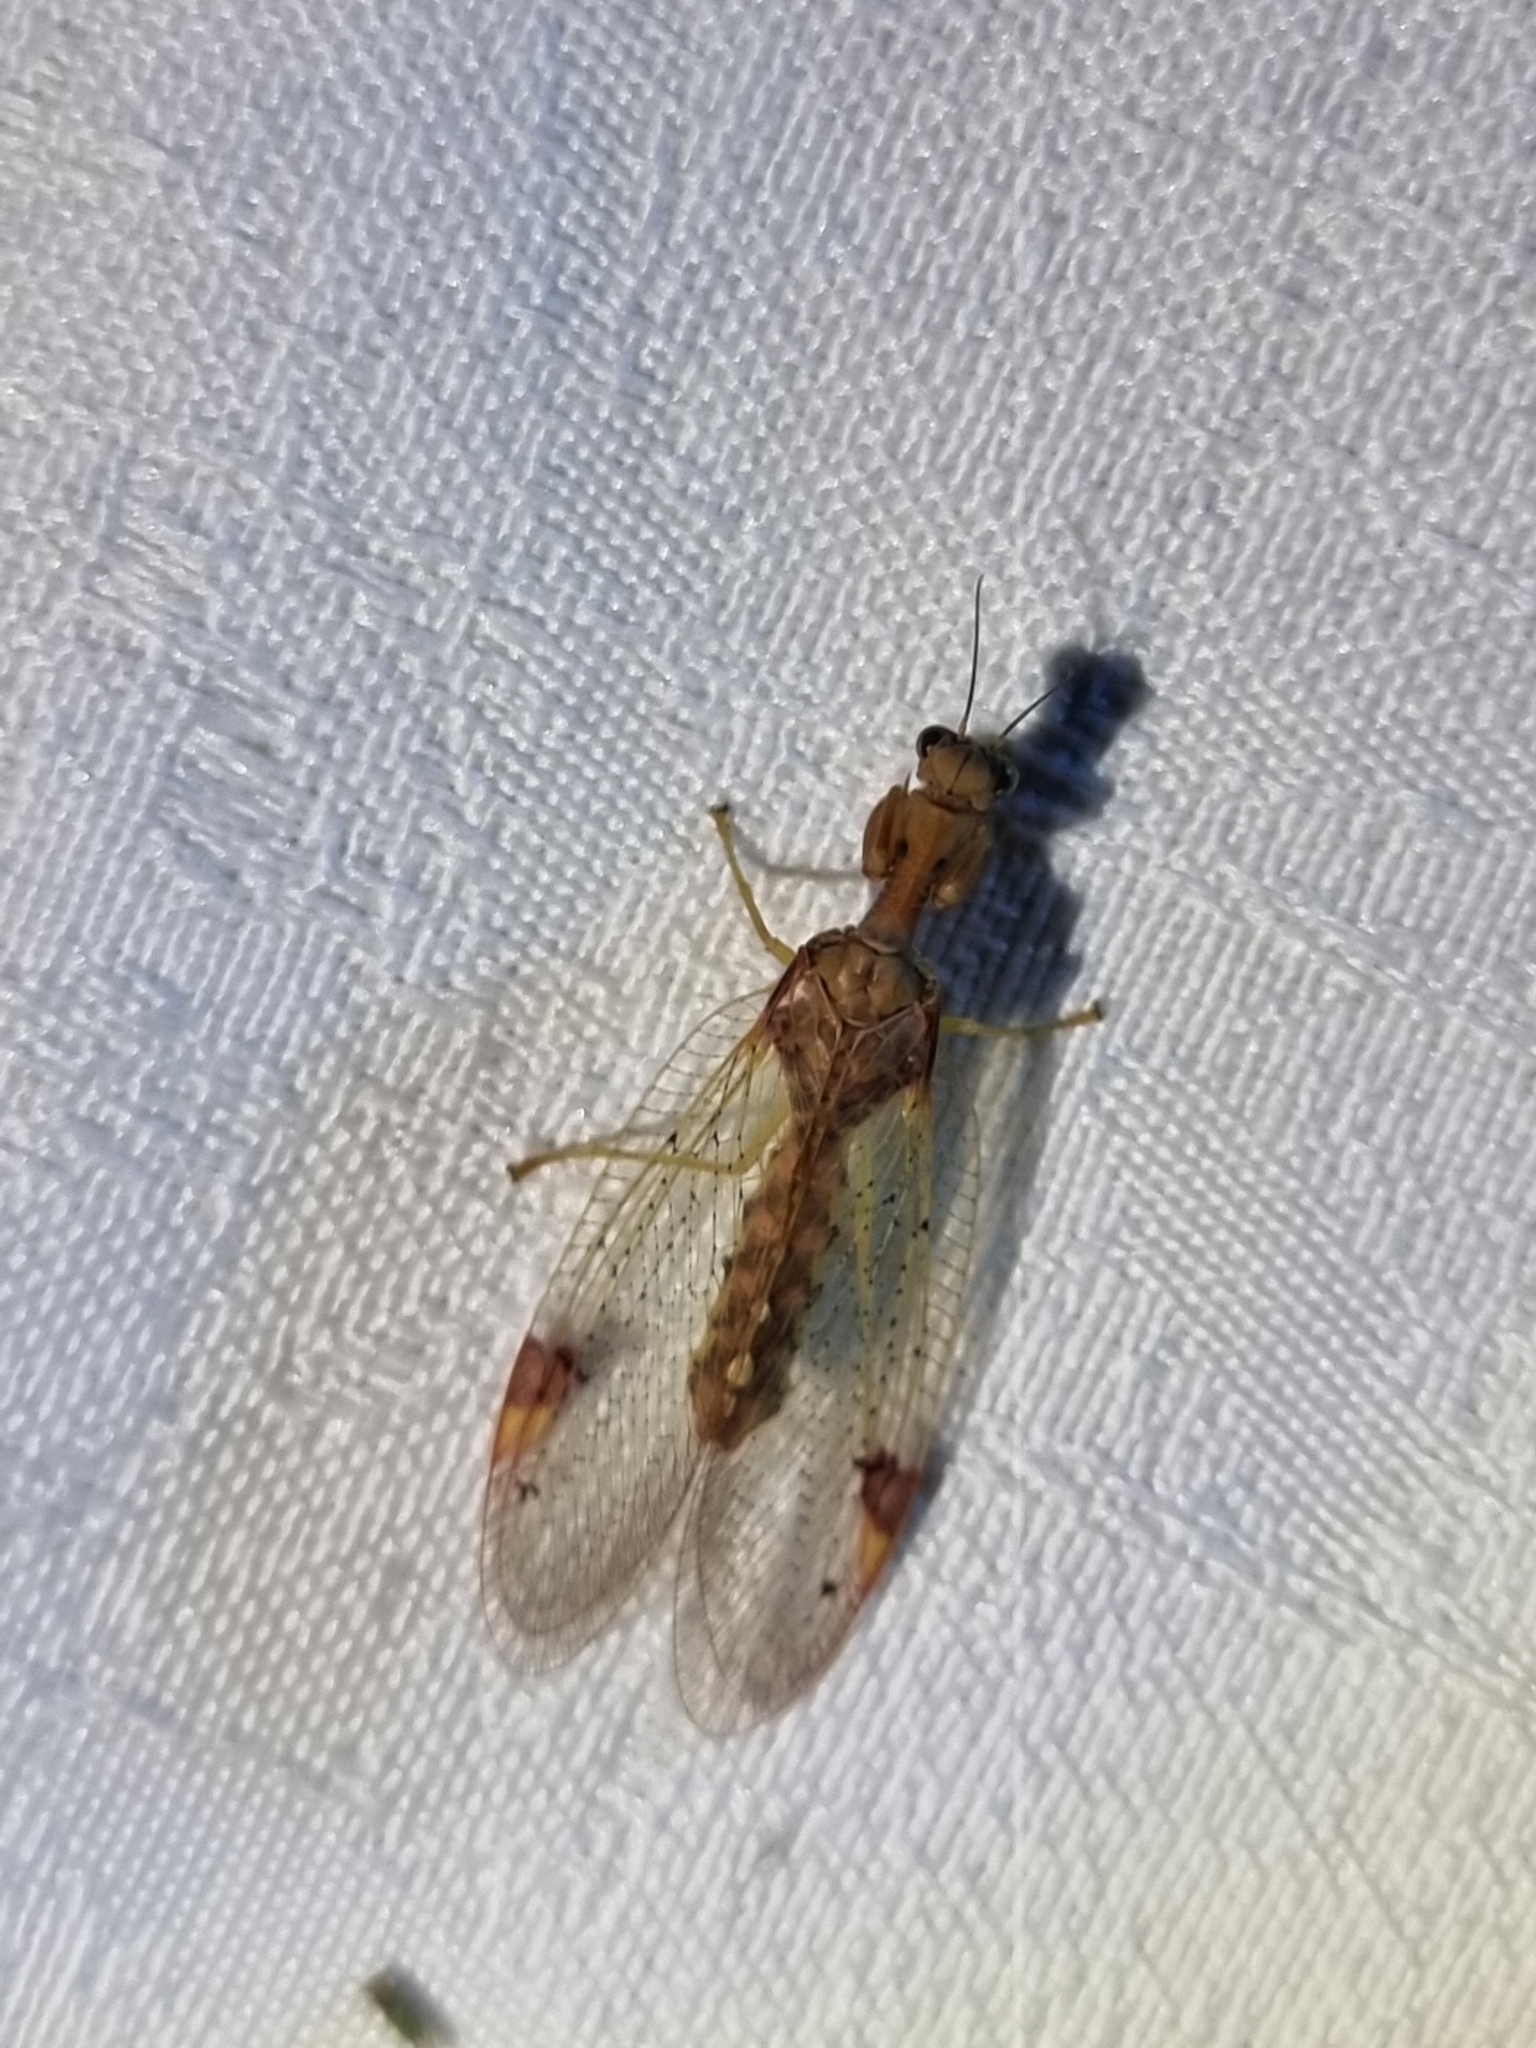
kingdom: Animalia
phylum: Arthropoda
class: Insecta
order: Neuroptera
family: Mantispidae
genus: Ditaxis
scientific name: Ditaxis biseriata
